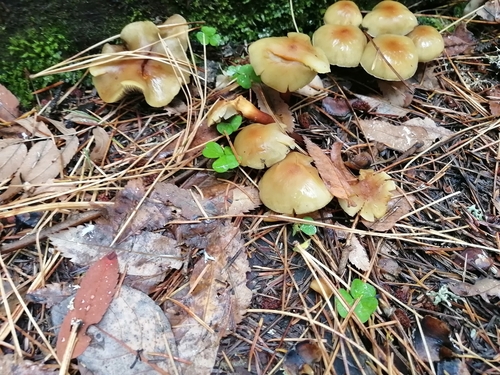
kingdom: Fungi
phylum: Basidiomycota
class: Agaricomycetes
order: Agaricales
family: Strophariaceae
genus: Hypholoma
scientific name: Hypholoma capnoides
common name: Conifer tuft
